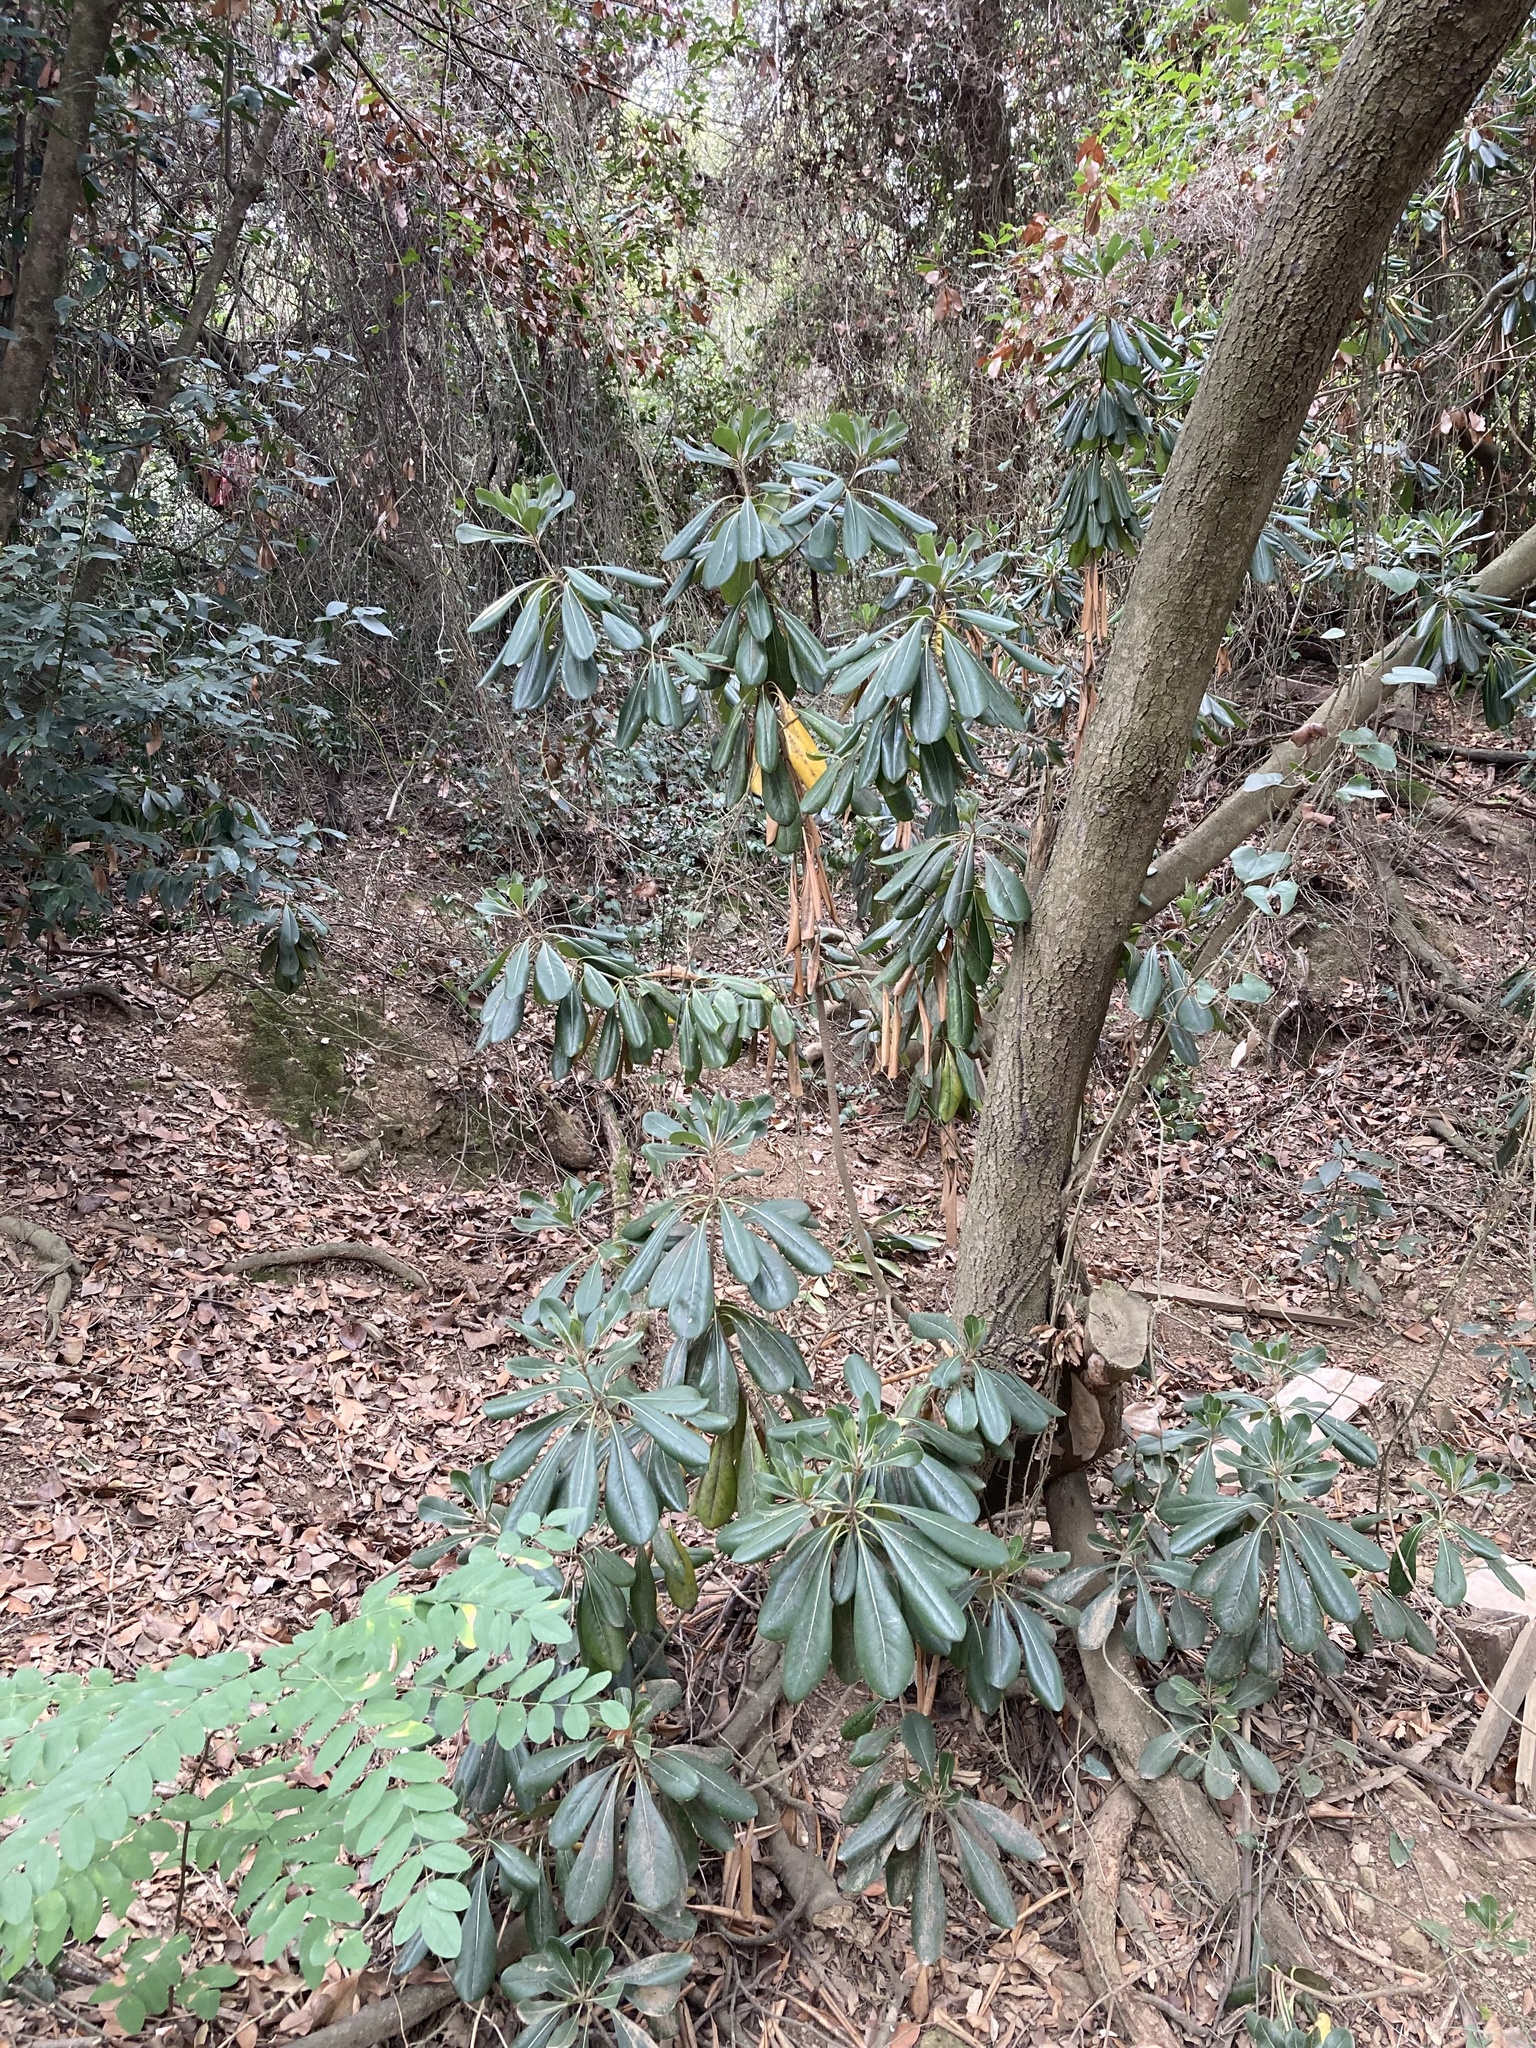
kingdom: Plantae
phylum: Tracheophyta
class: Magnoliopsida
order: Apiales
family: Pittosporaceae
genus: Pittosporum
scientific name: Pittosporum tobira
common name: Japanese cheesewood
